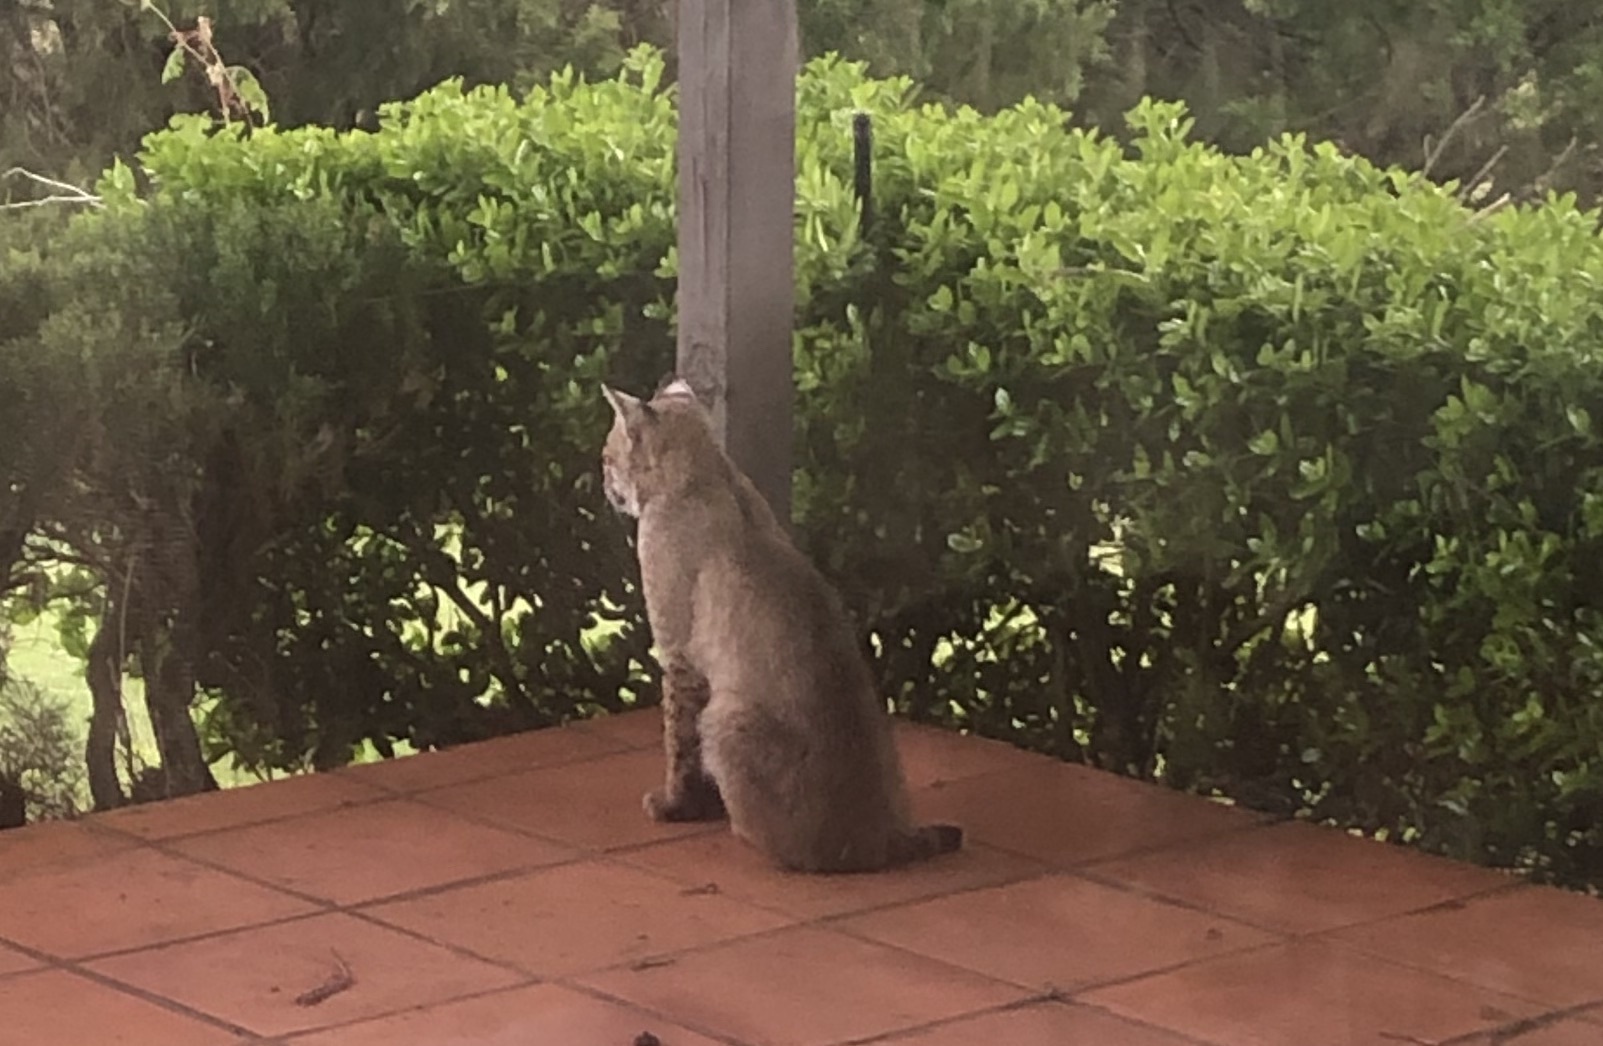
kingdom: Animalia
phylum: Chordata
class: Mammalia
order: Carnivora
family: Felidae
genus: Lynx
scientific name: Lynx rufus
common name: Bobcat
